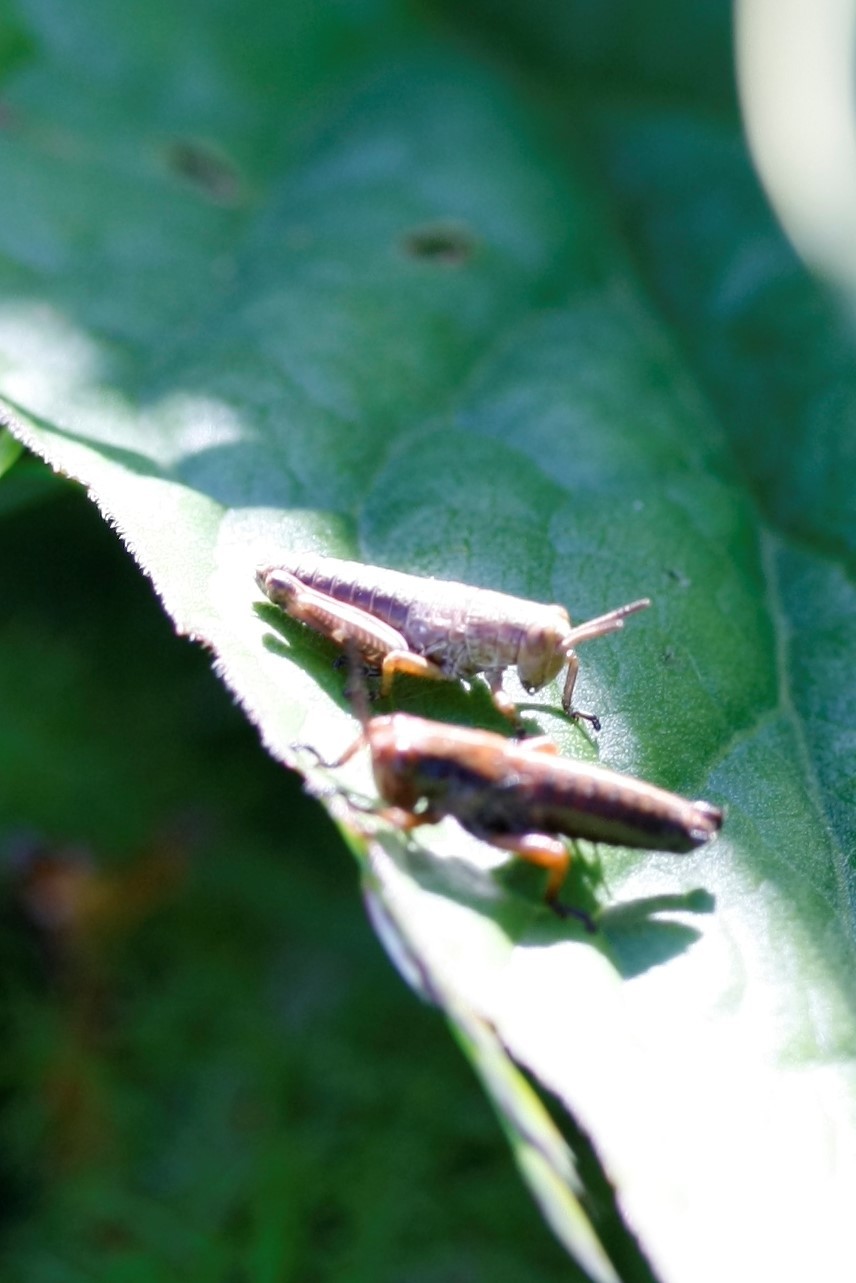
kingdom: Animalia
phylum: Arthropoda
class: Insecta
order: Orthoptera
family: Acrididae
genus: Miramella
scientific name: Miramella alpina
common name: Green mountain grasshopper
